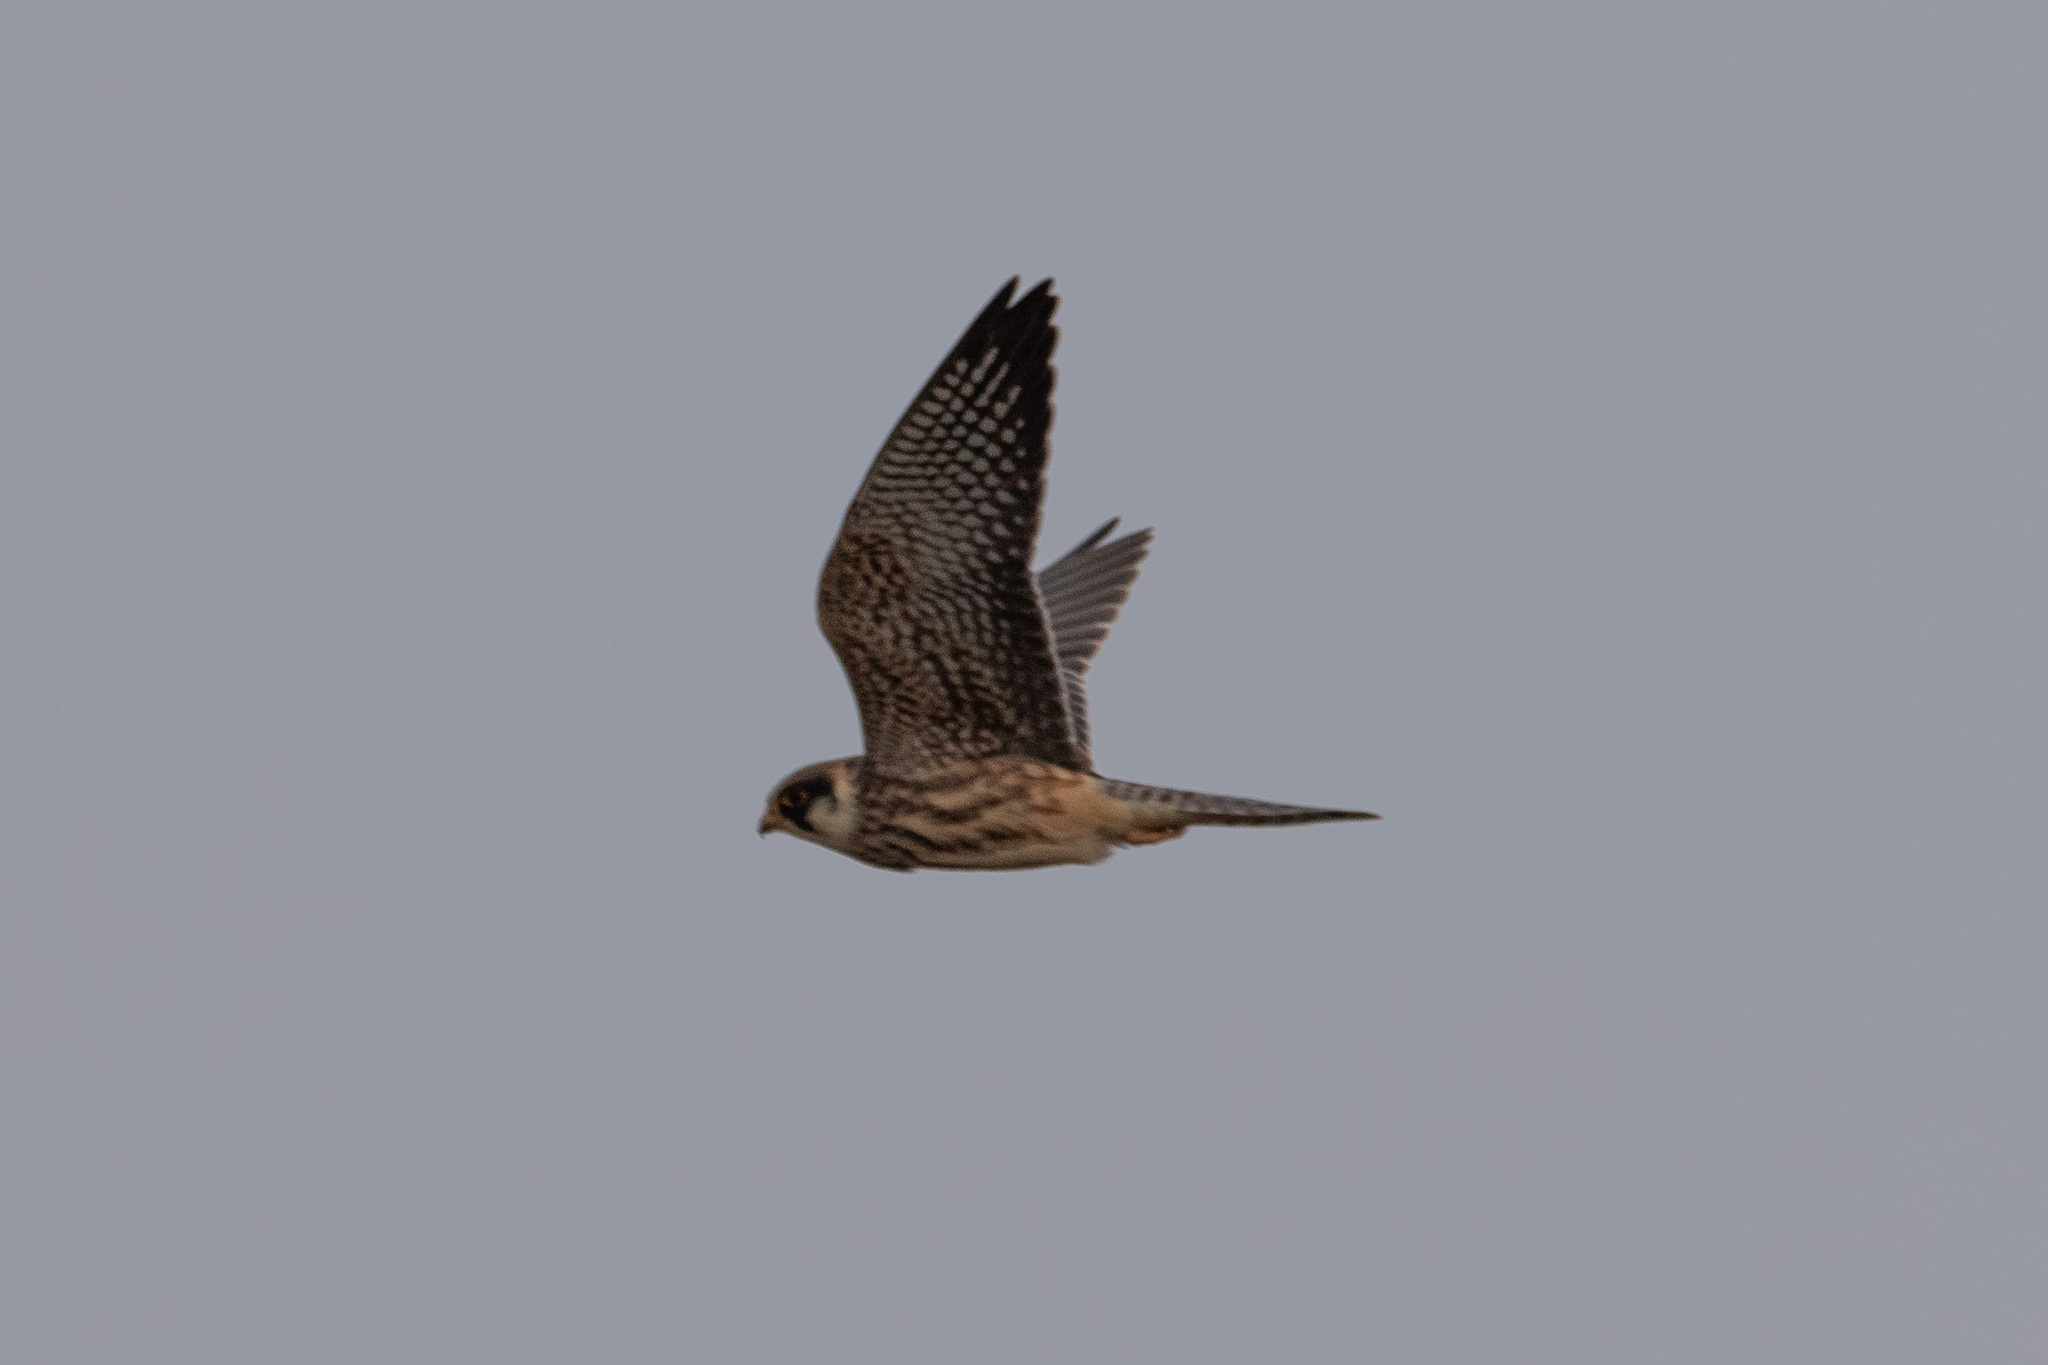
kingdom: Animalia
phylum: Chordata
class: Aves
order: Falconiformes
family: Falconidae
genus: Falco
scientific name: Falco subbuteo
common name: Eurasian hobby
